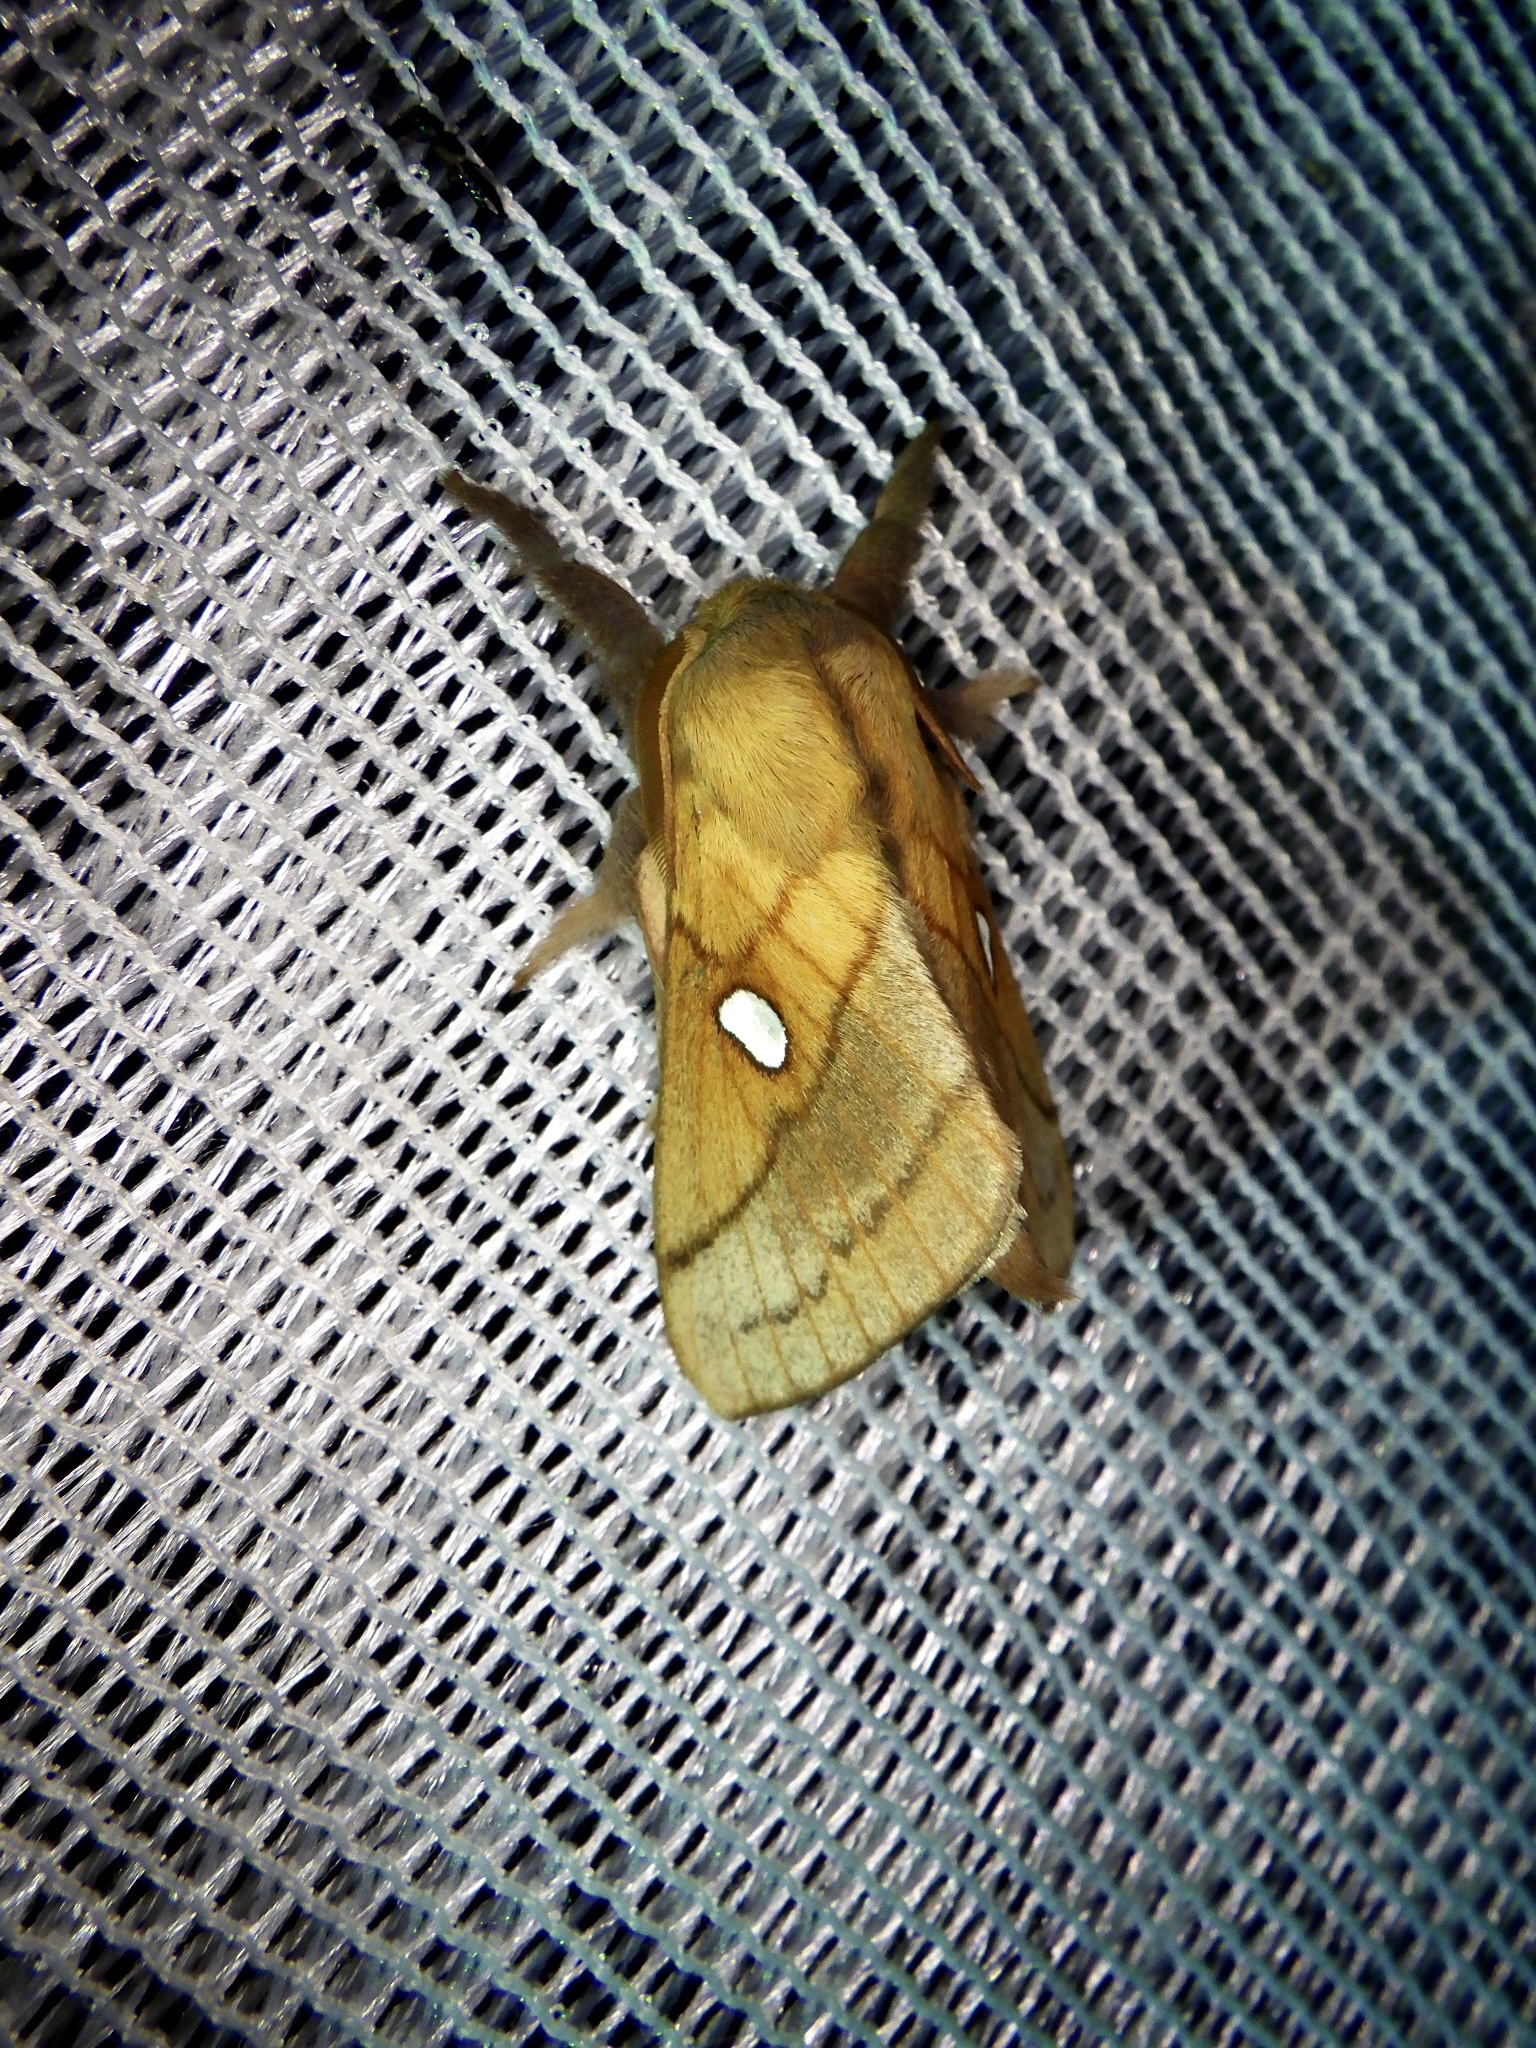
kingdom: Animalia
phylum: Arthropoda
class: Insecta
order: Lepidoptera
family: Lasiocampidae
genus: Somadasys
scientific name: Somadasys brevivenis
